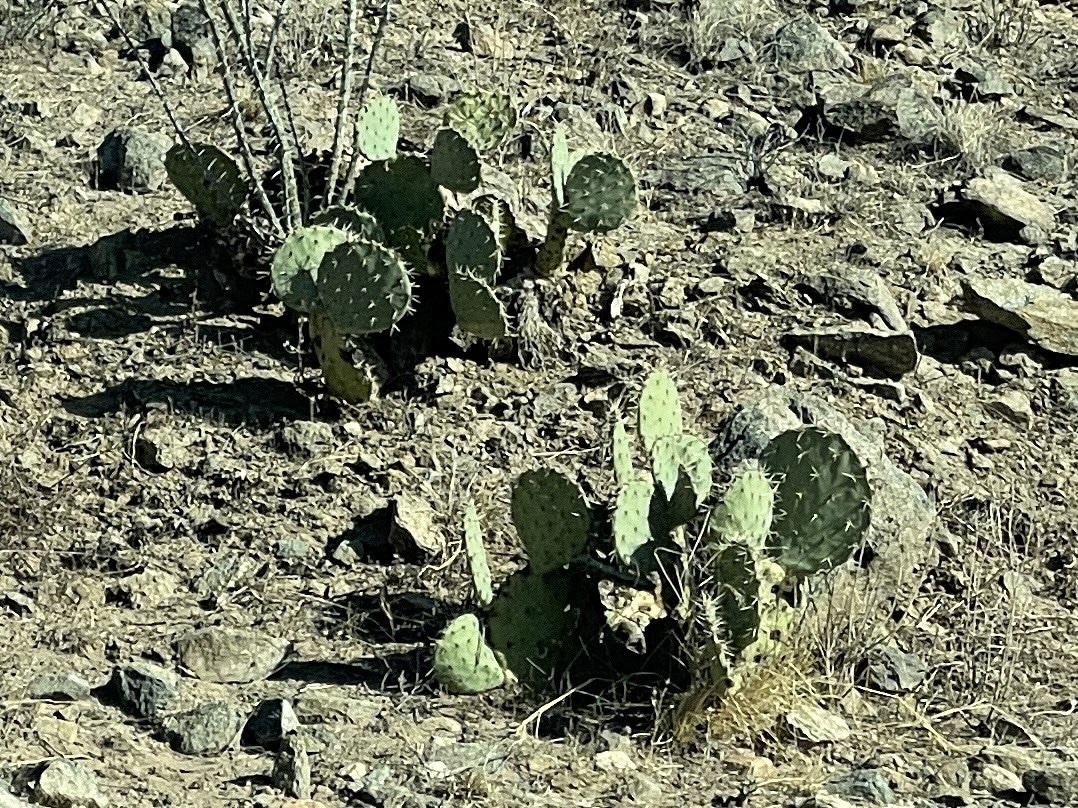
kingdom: Plantae
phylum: Tracheophyta
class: Magnoliopsida
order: Caryophyllales
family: Cactaceae
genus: Opuntia
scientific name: Opuntia engelmannii
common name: Cactus-apple
